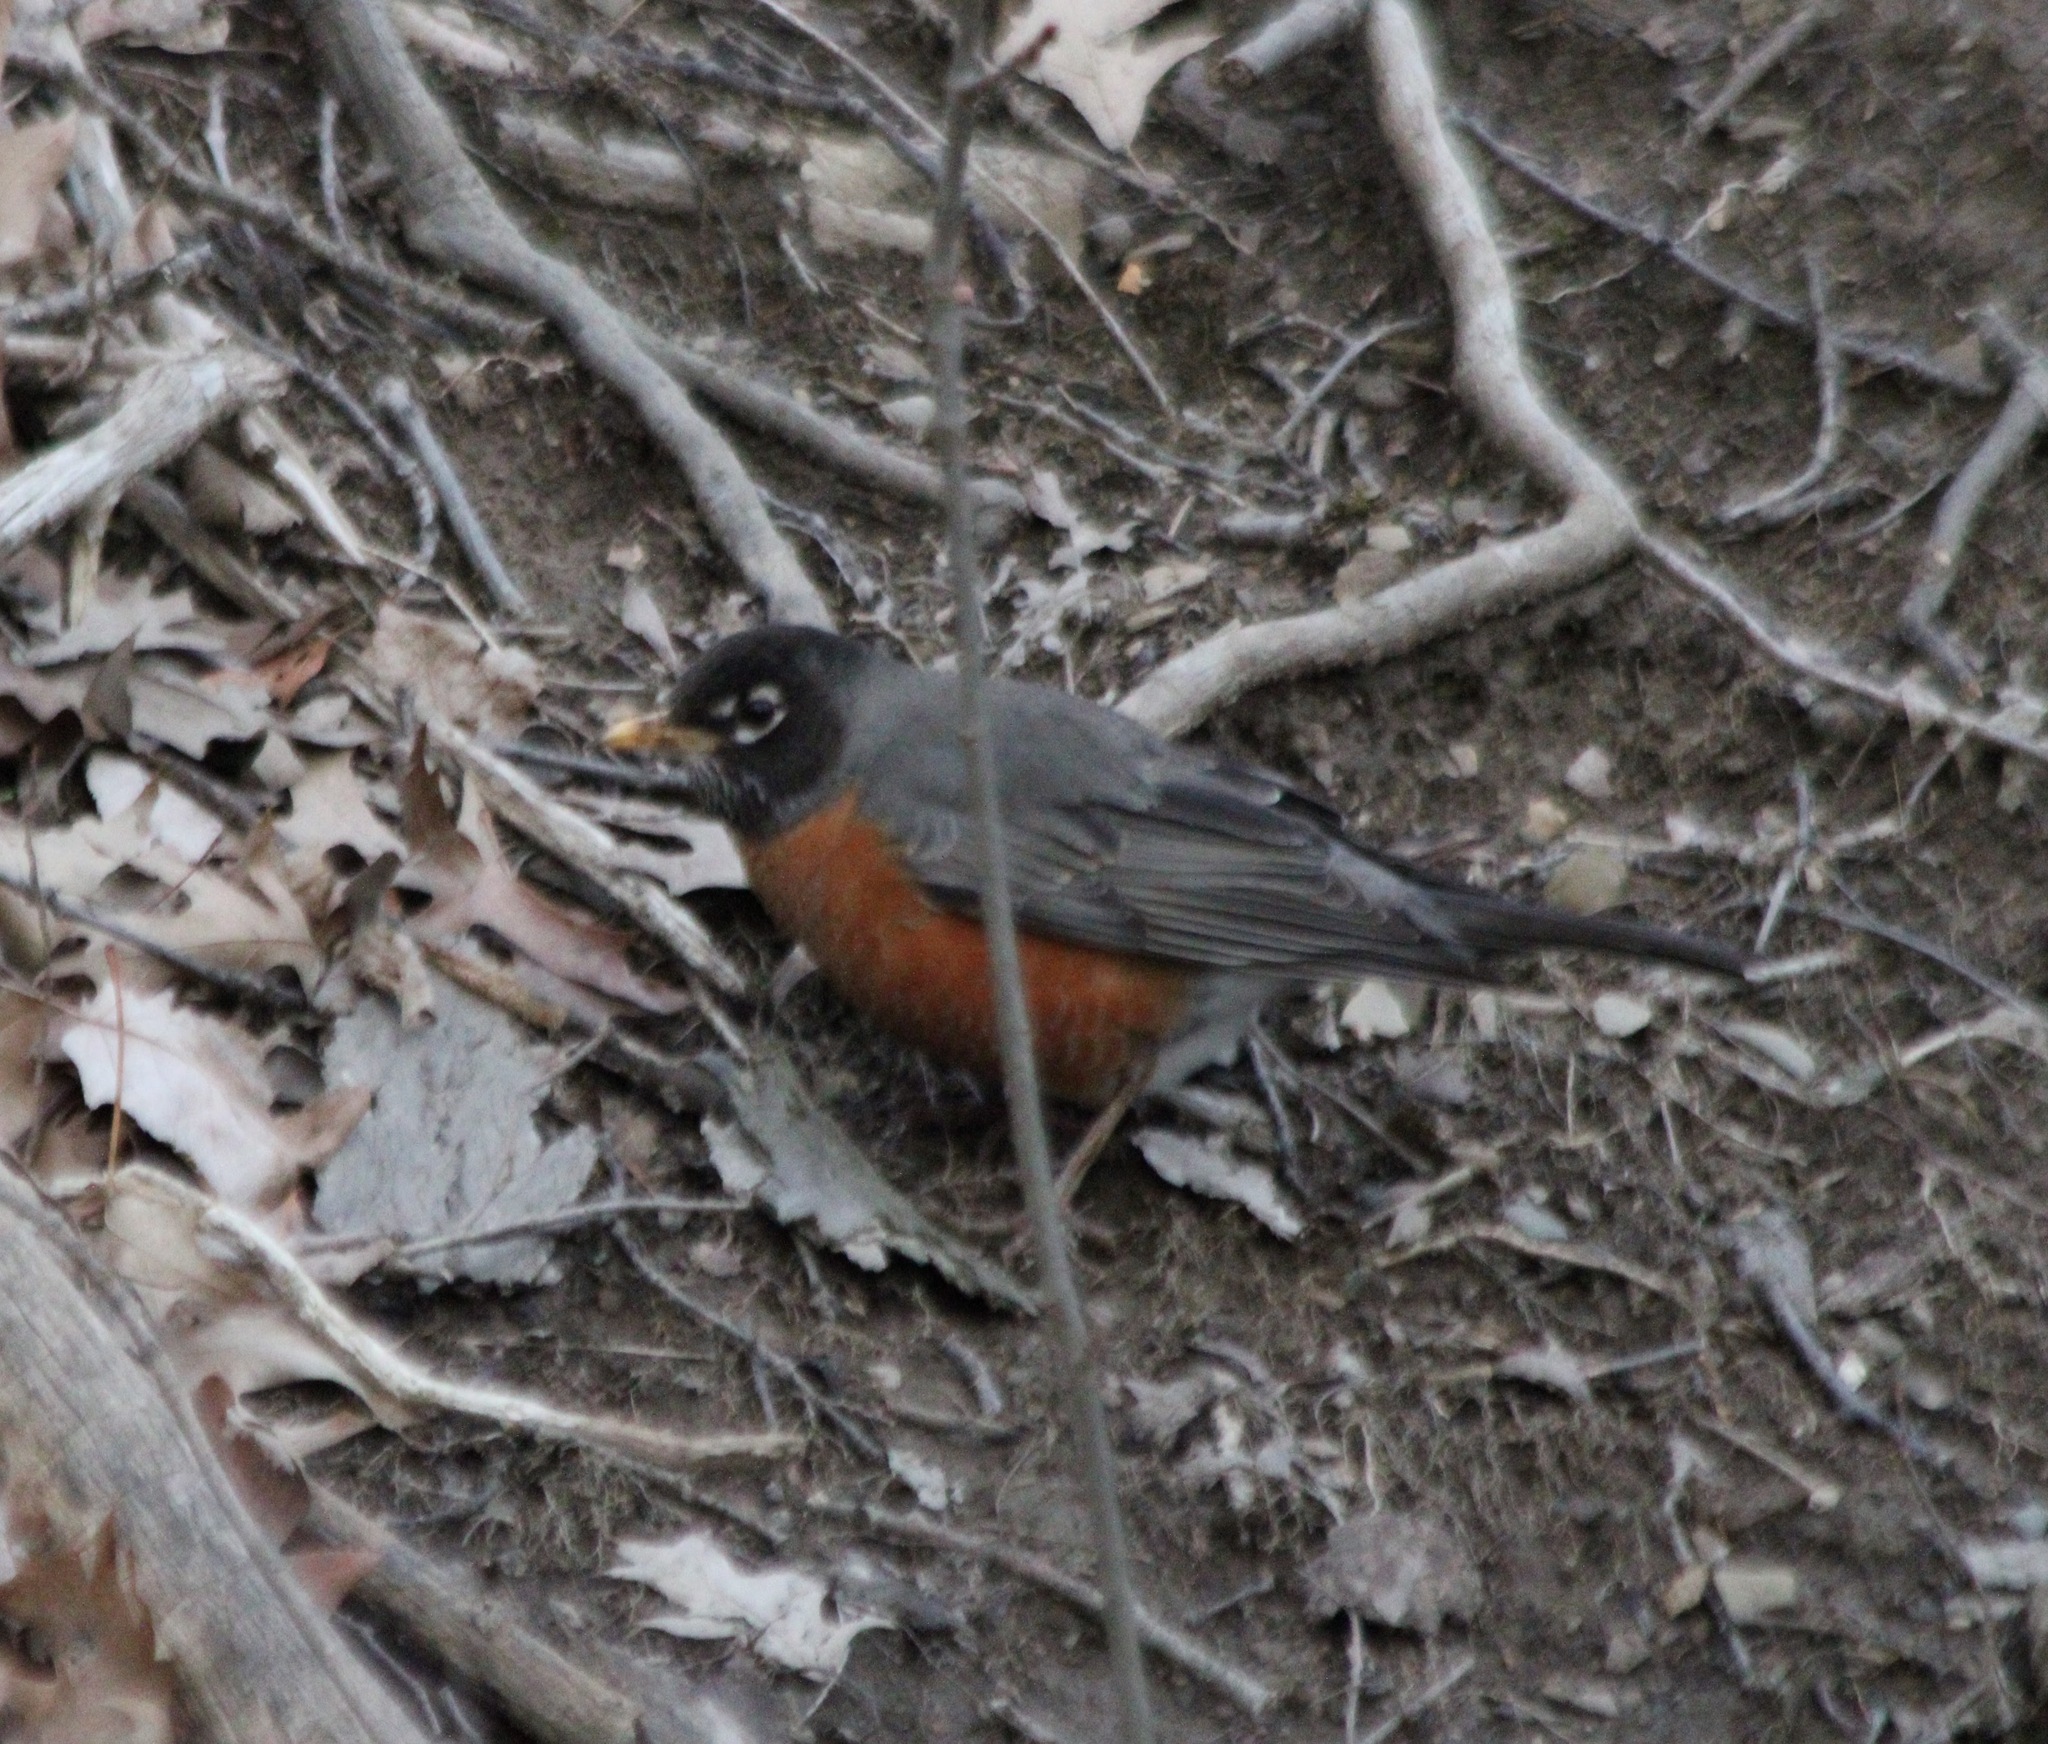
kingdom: Animalia
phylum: Chordata
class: Aves
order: Passeriformes
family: Turdidae
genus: Turdus
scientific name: Turdus migratorius
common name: American robin
